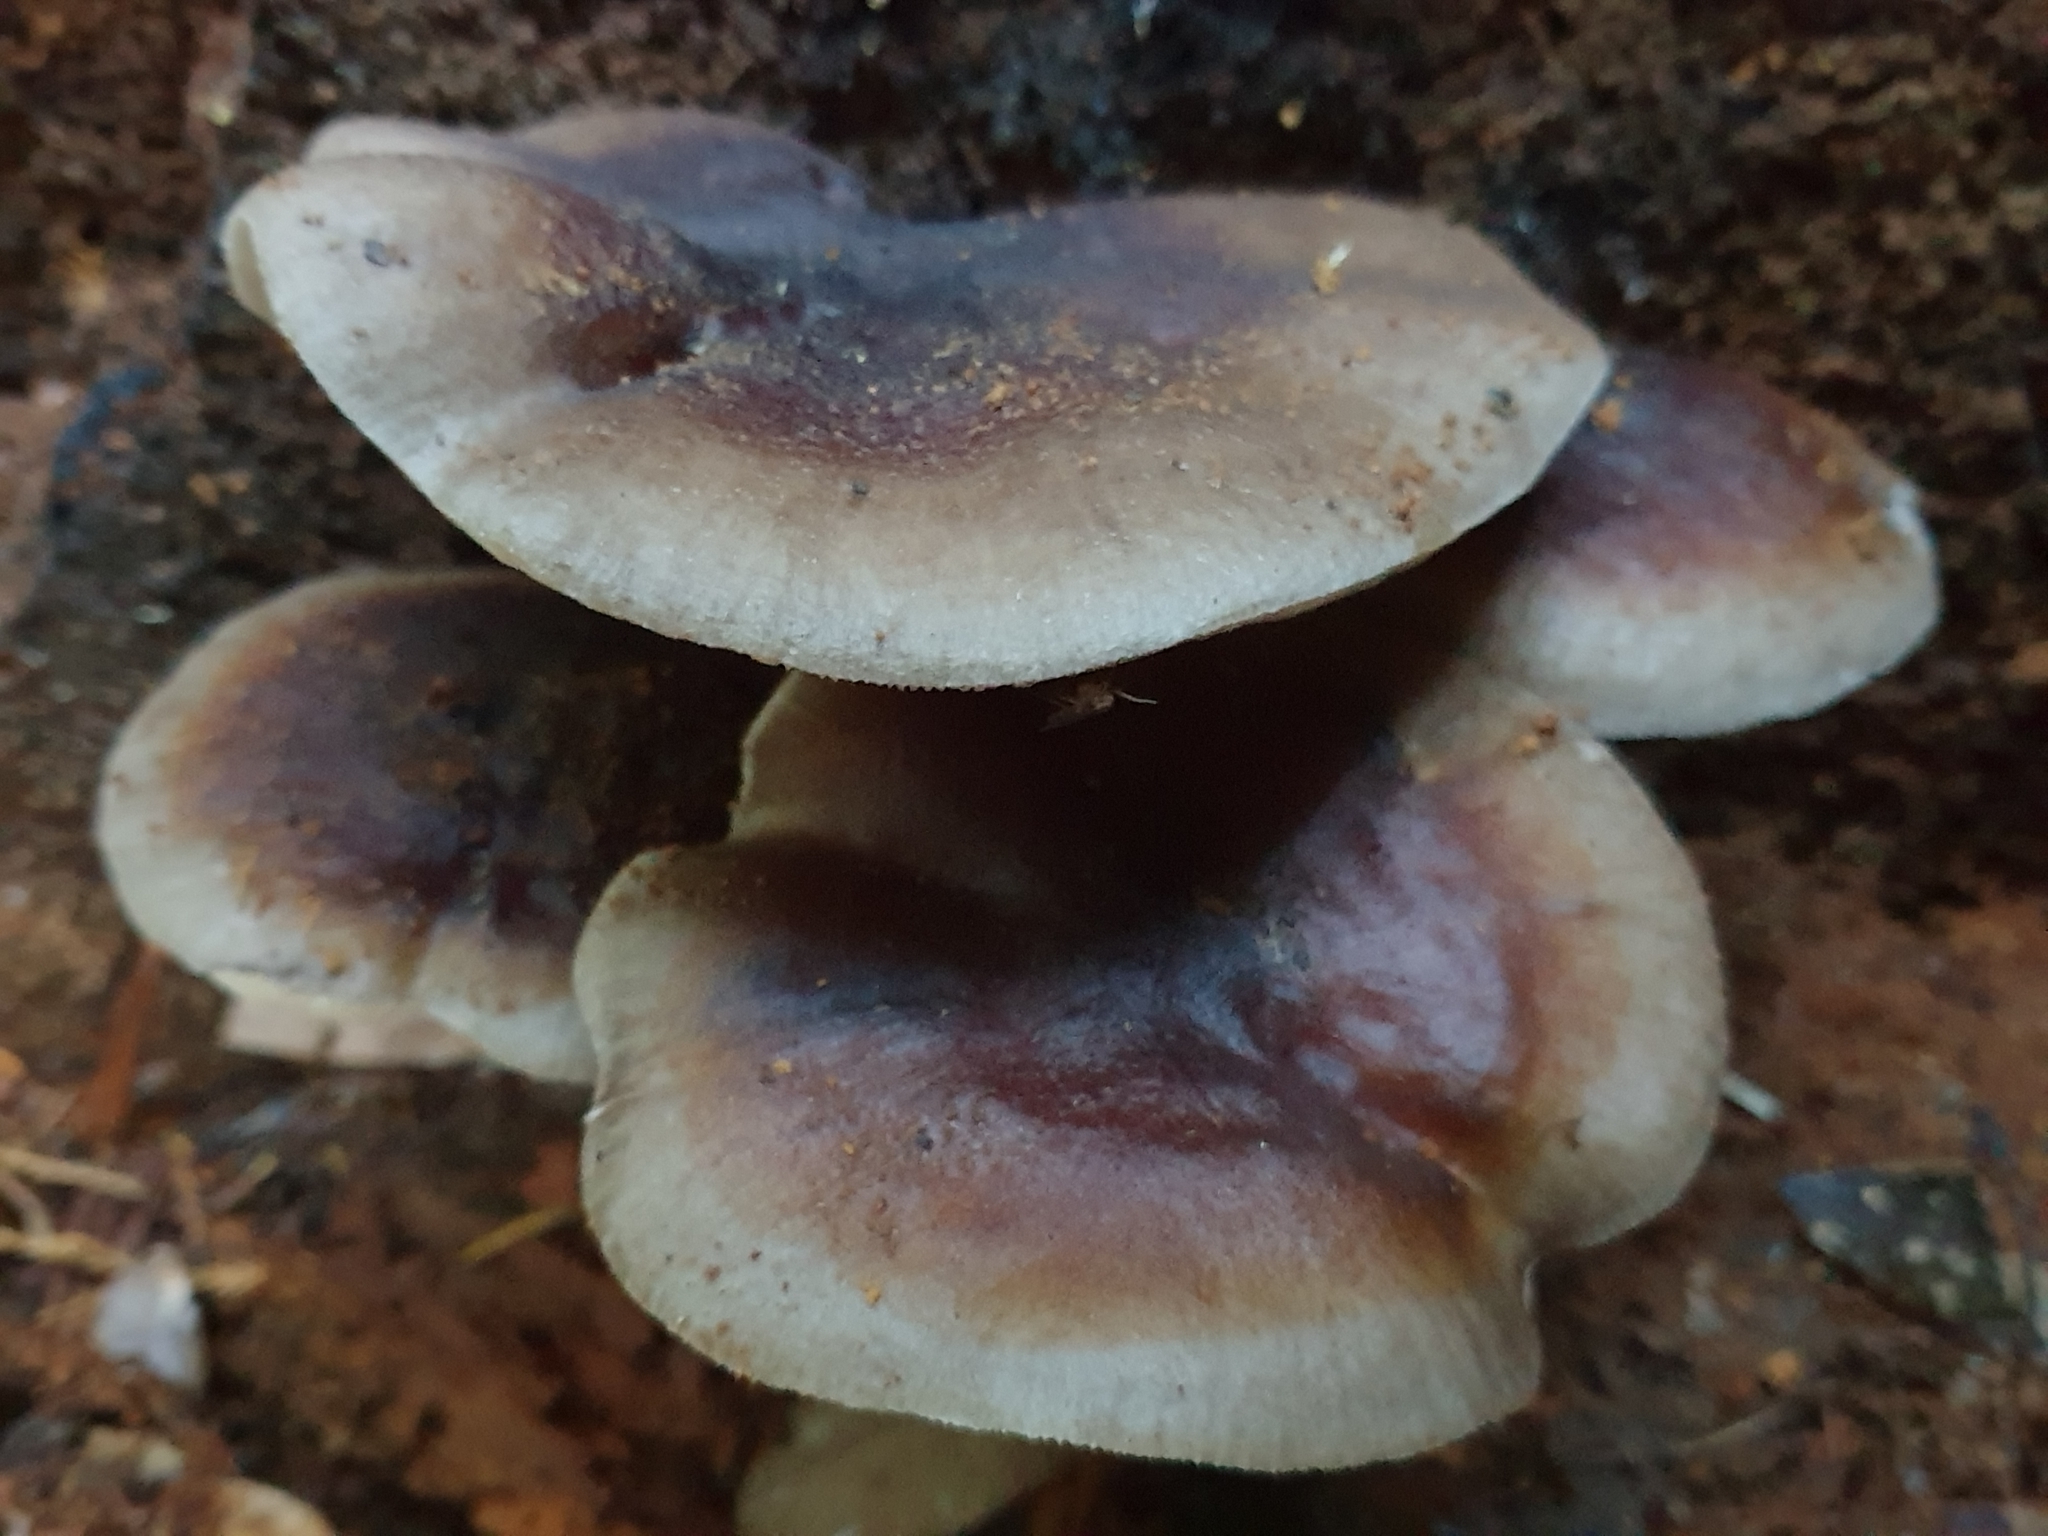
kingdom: Fungi
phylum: Basidiomycota
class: Agaricomycetes
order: Agaricales
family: Physalacriaceae
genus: Armillaria
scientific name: Armillaria novae-zelandiae
